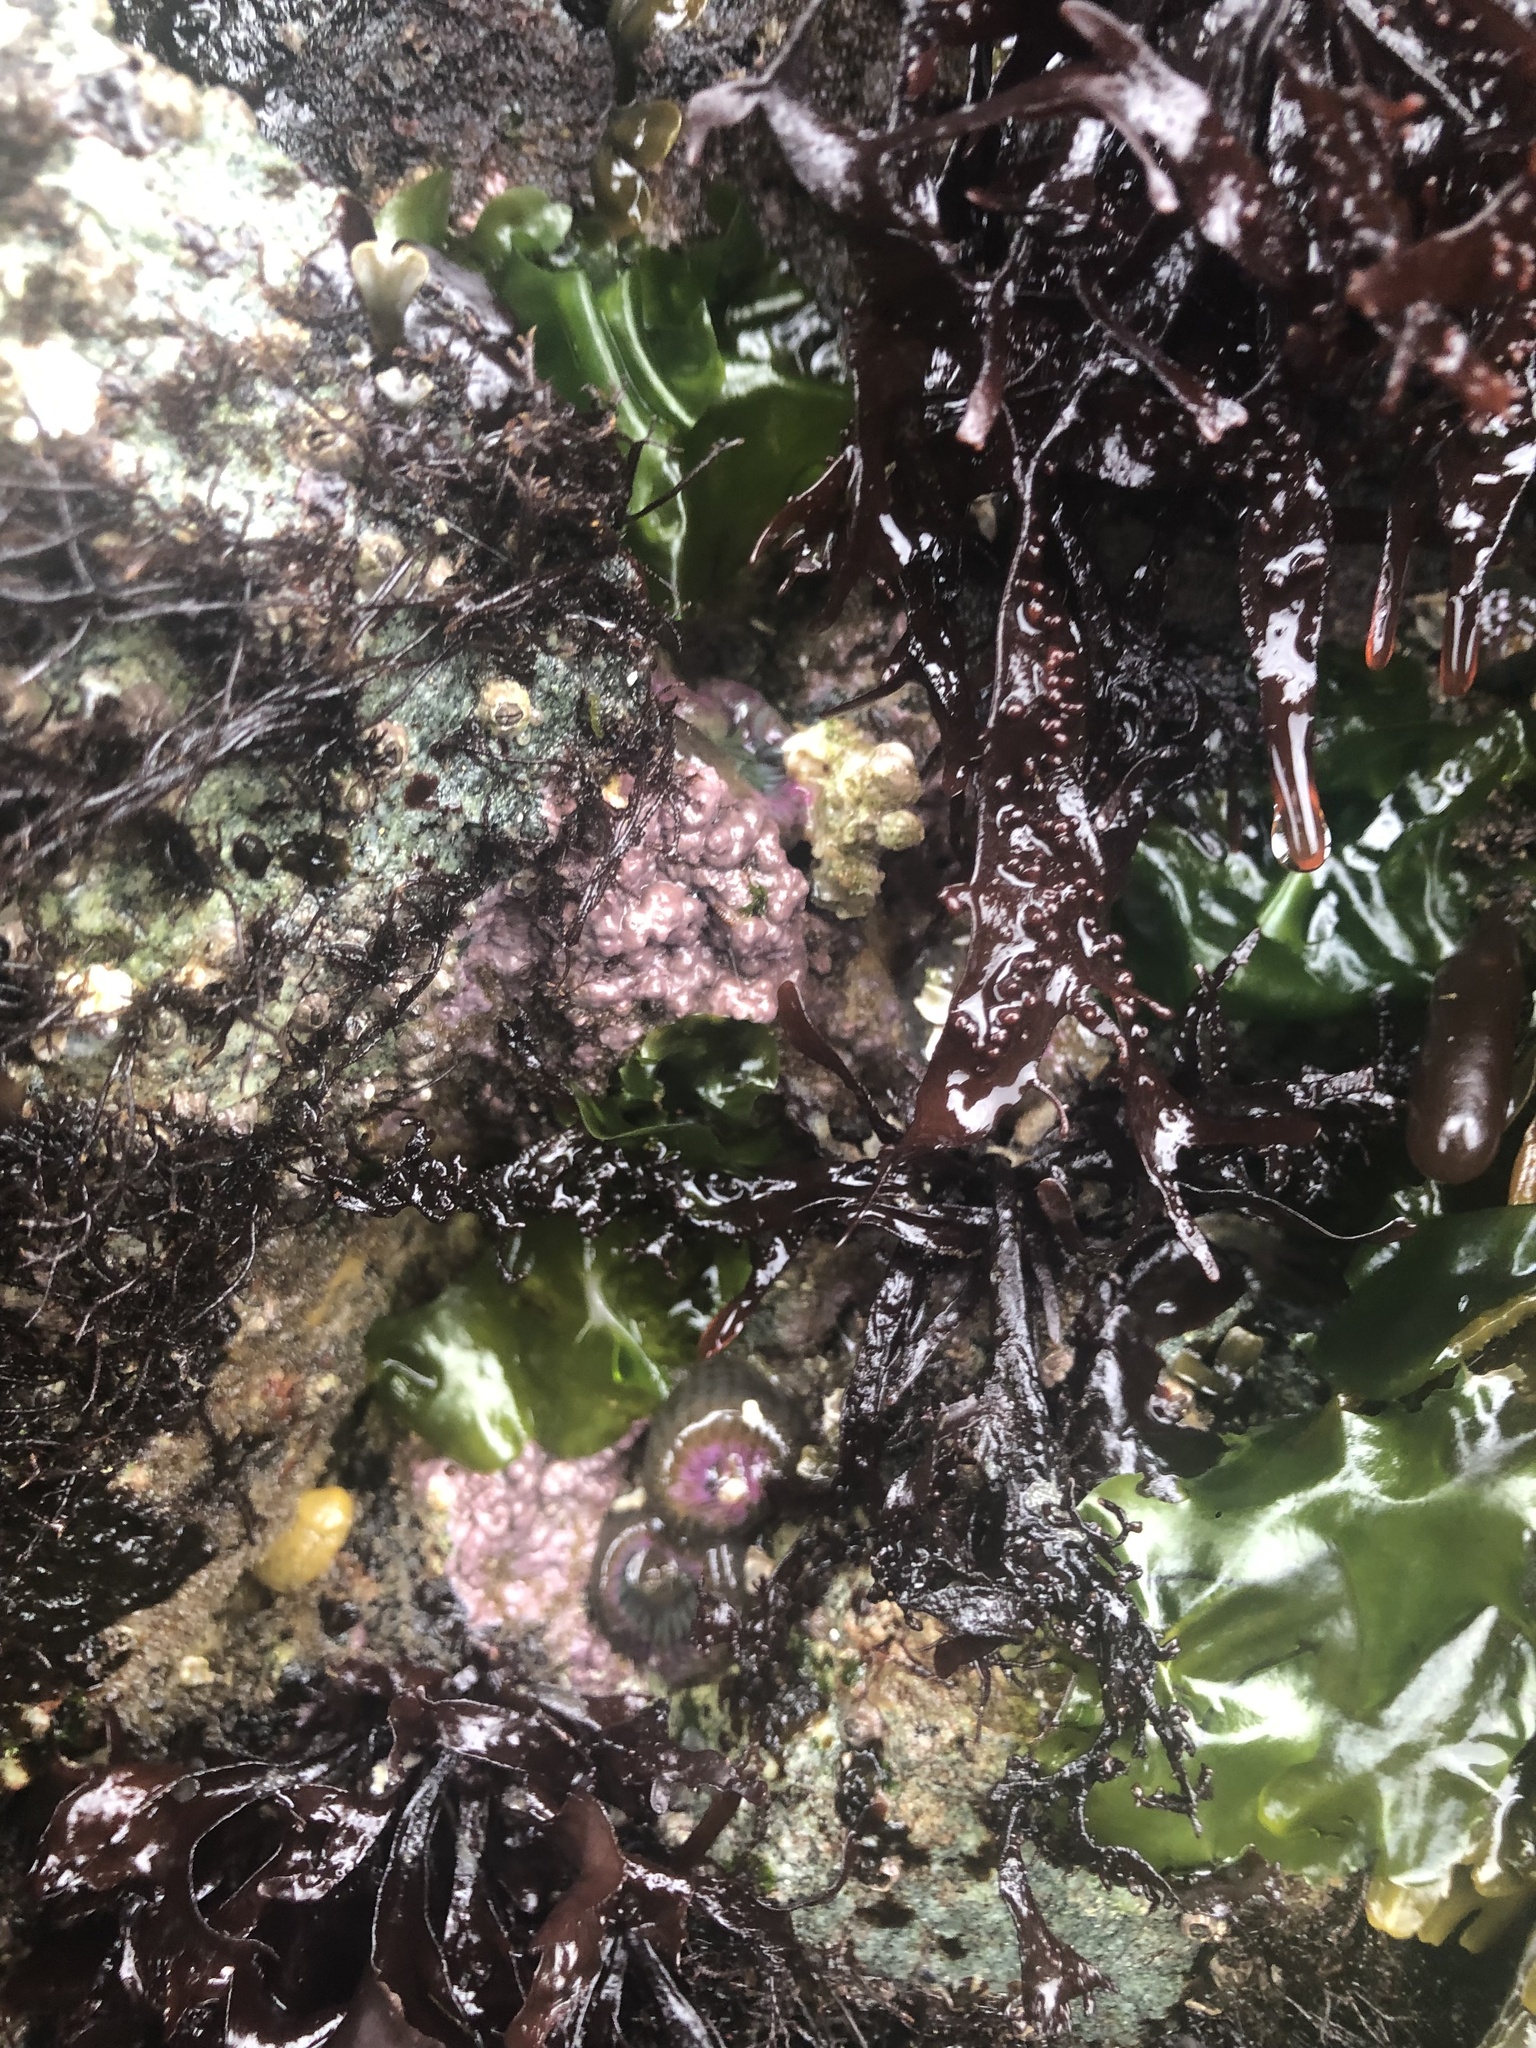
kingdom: Plantae
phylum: Rhodophyta
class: Florideophyceae
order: Corallinales
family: Corallinaceae
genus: Chamberlainium
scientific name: Chamberlainium tumidum
